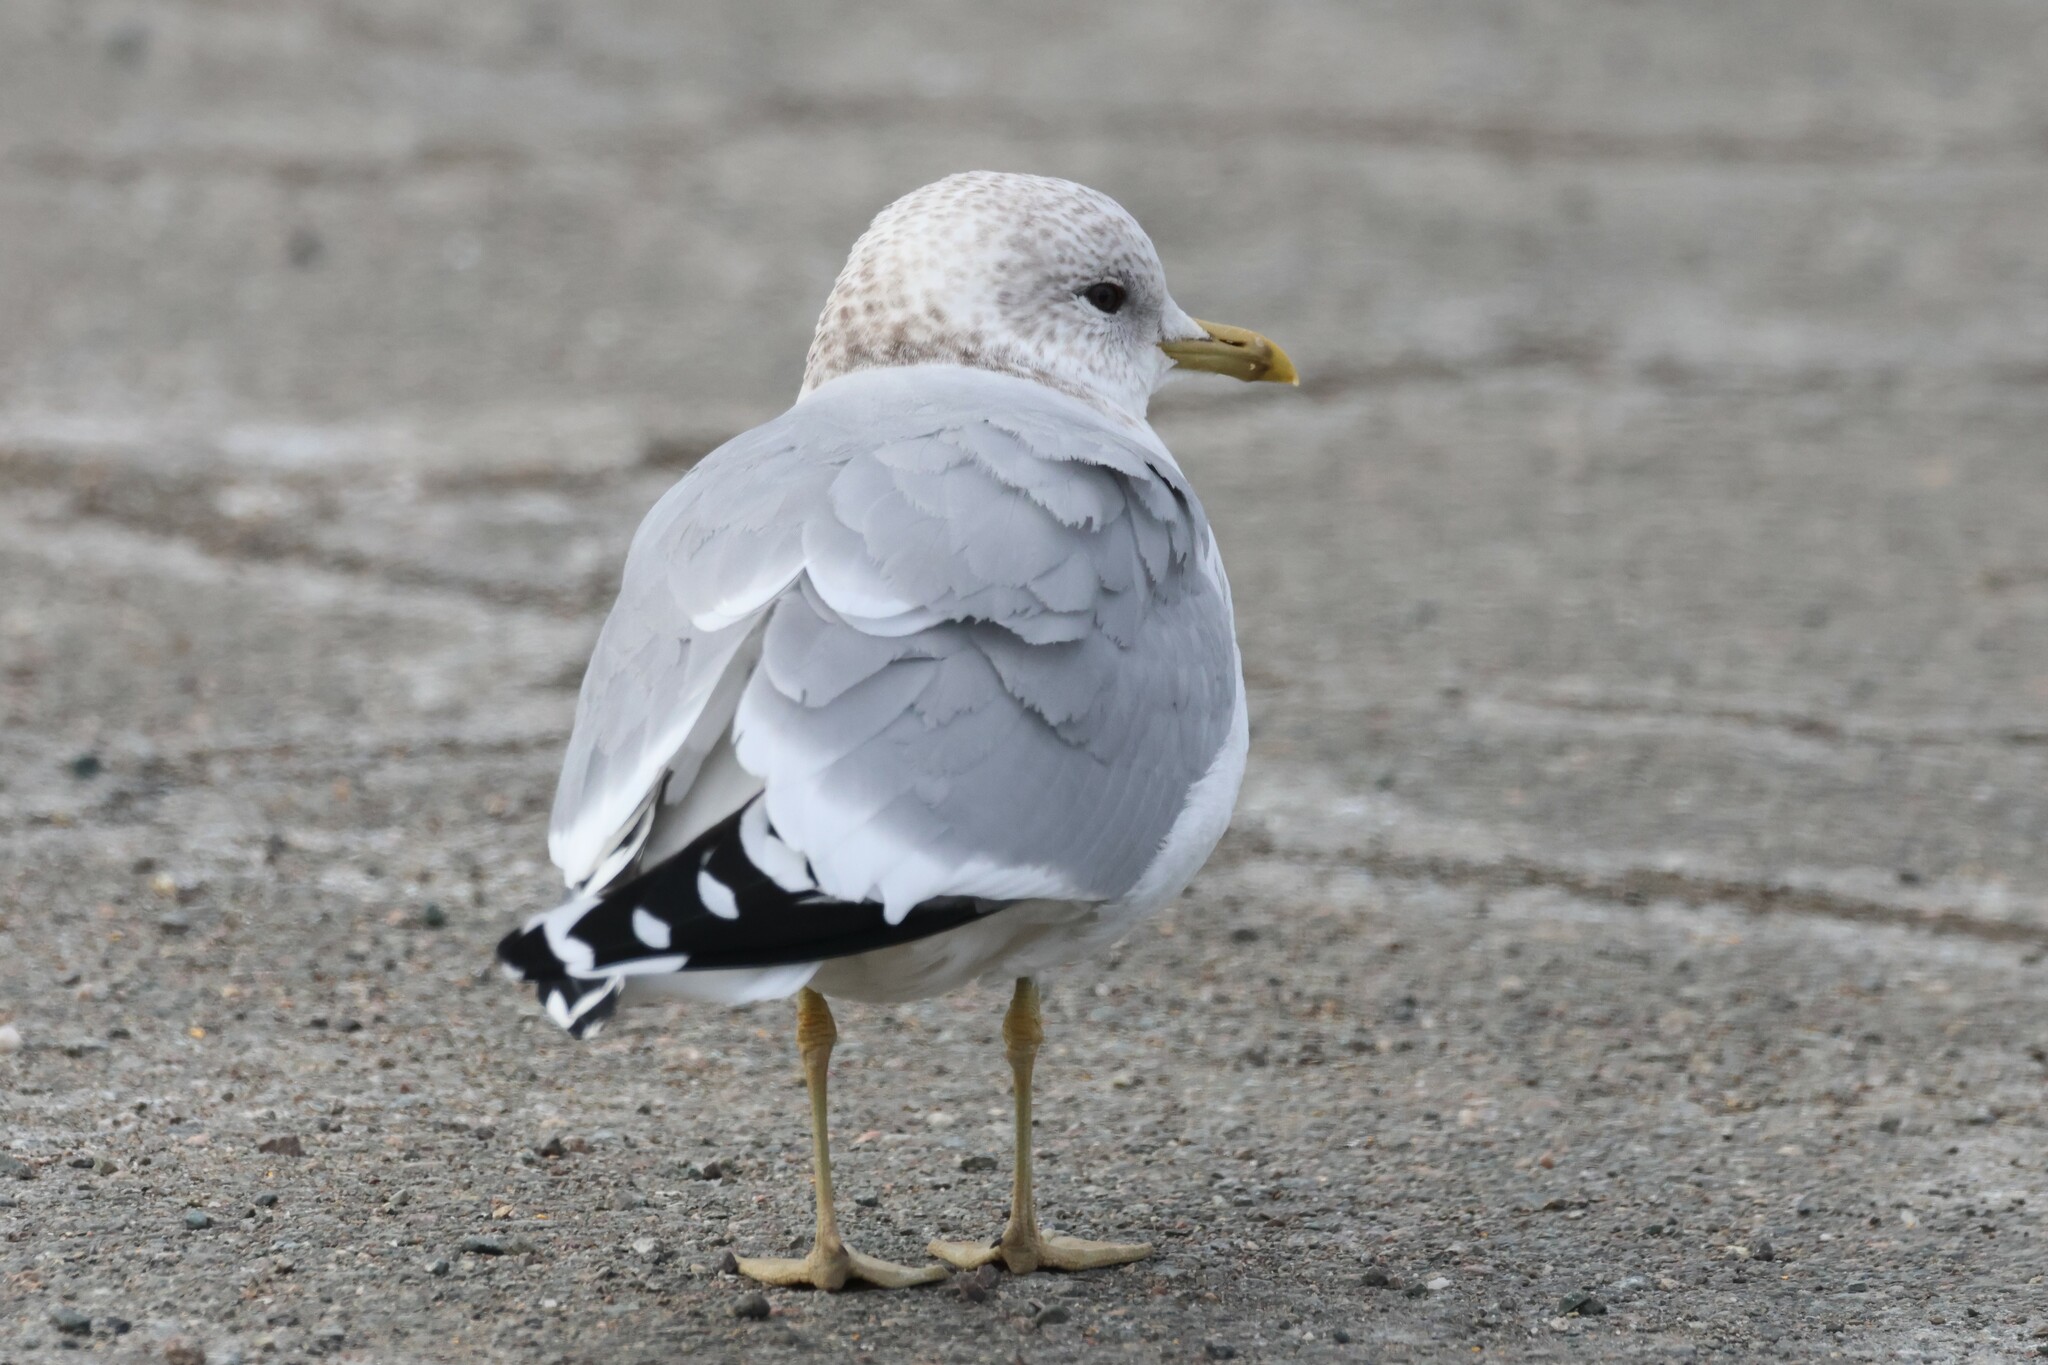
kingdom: Animalia
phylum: Chordata
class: Aves
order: Charadriiformes
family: Laridae
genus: Larus
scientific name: Larus canus
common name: Mew gull
